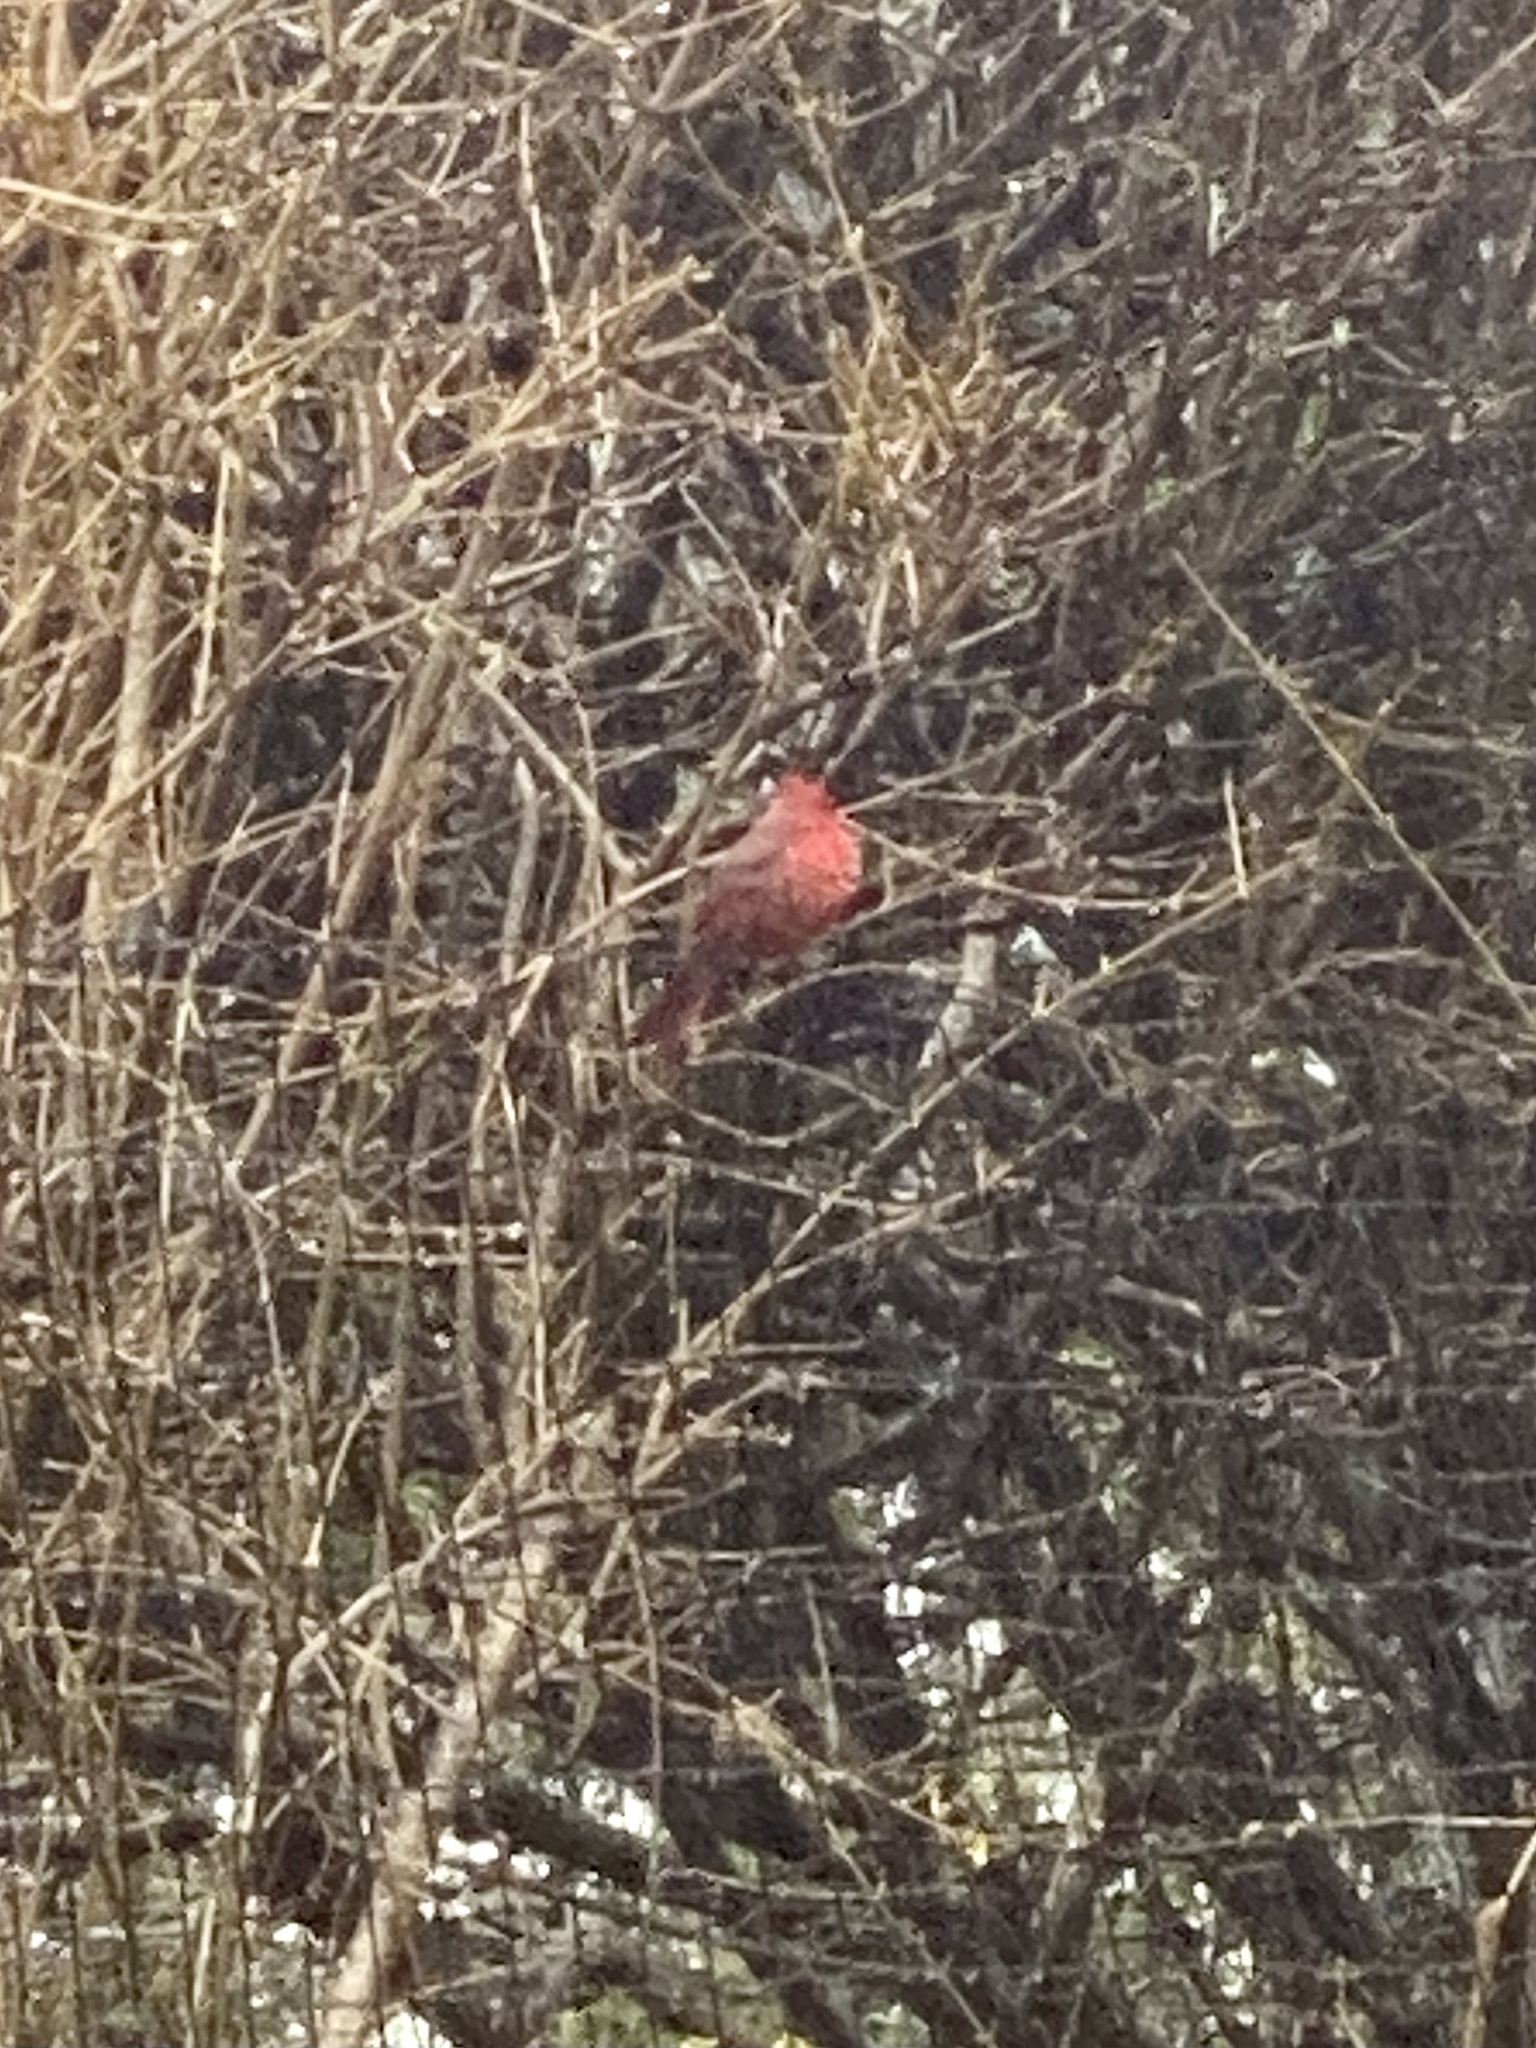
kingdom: Animalia
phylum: Chordata
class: Aves
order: Passeriformes
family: Cardinalidae
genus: Cardinalis
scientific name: Cardinalis cardinalis
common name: Northern cardinal
